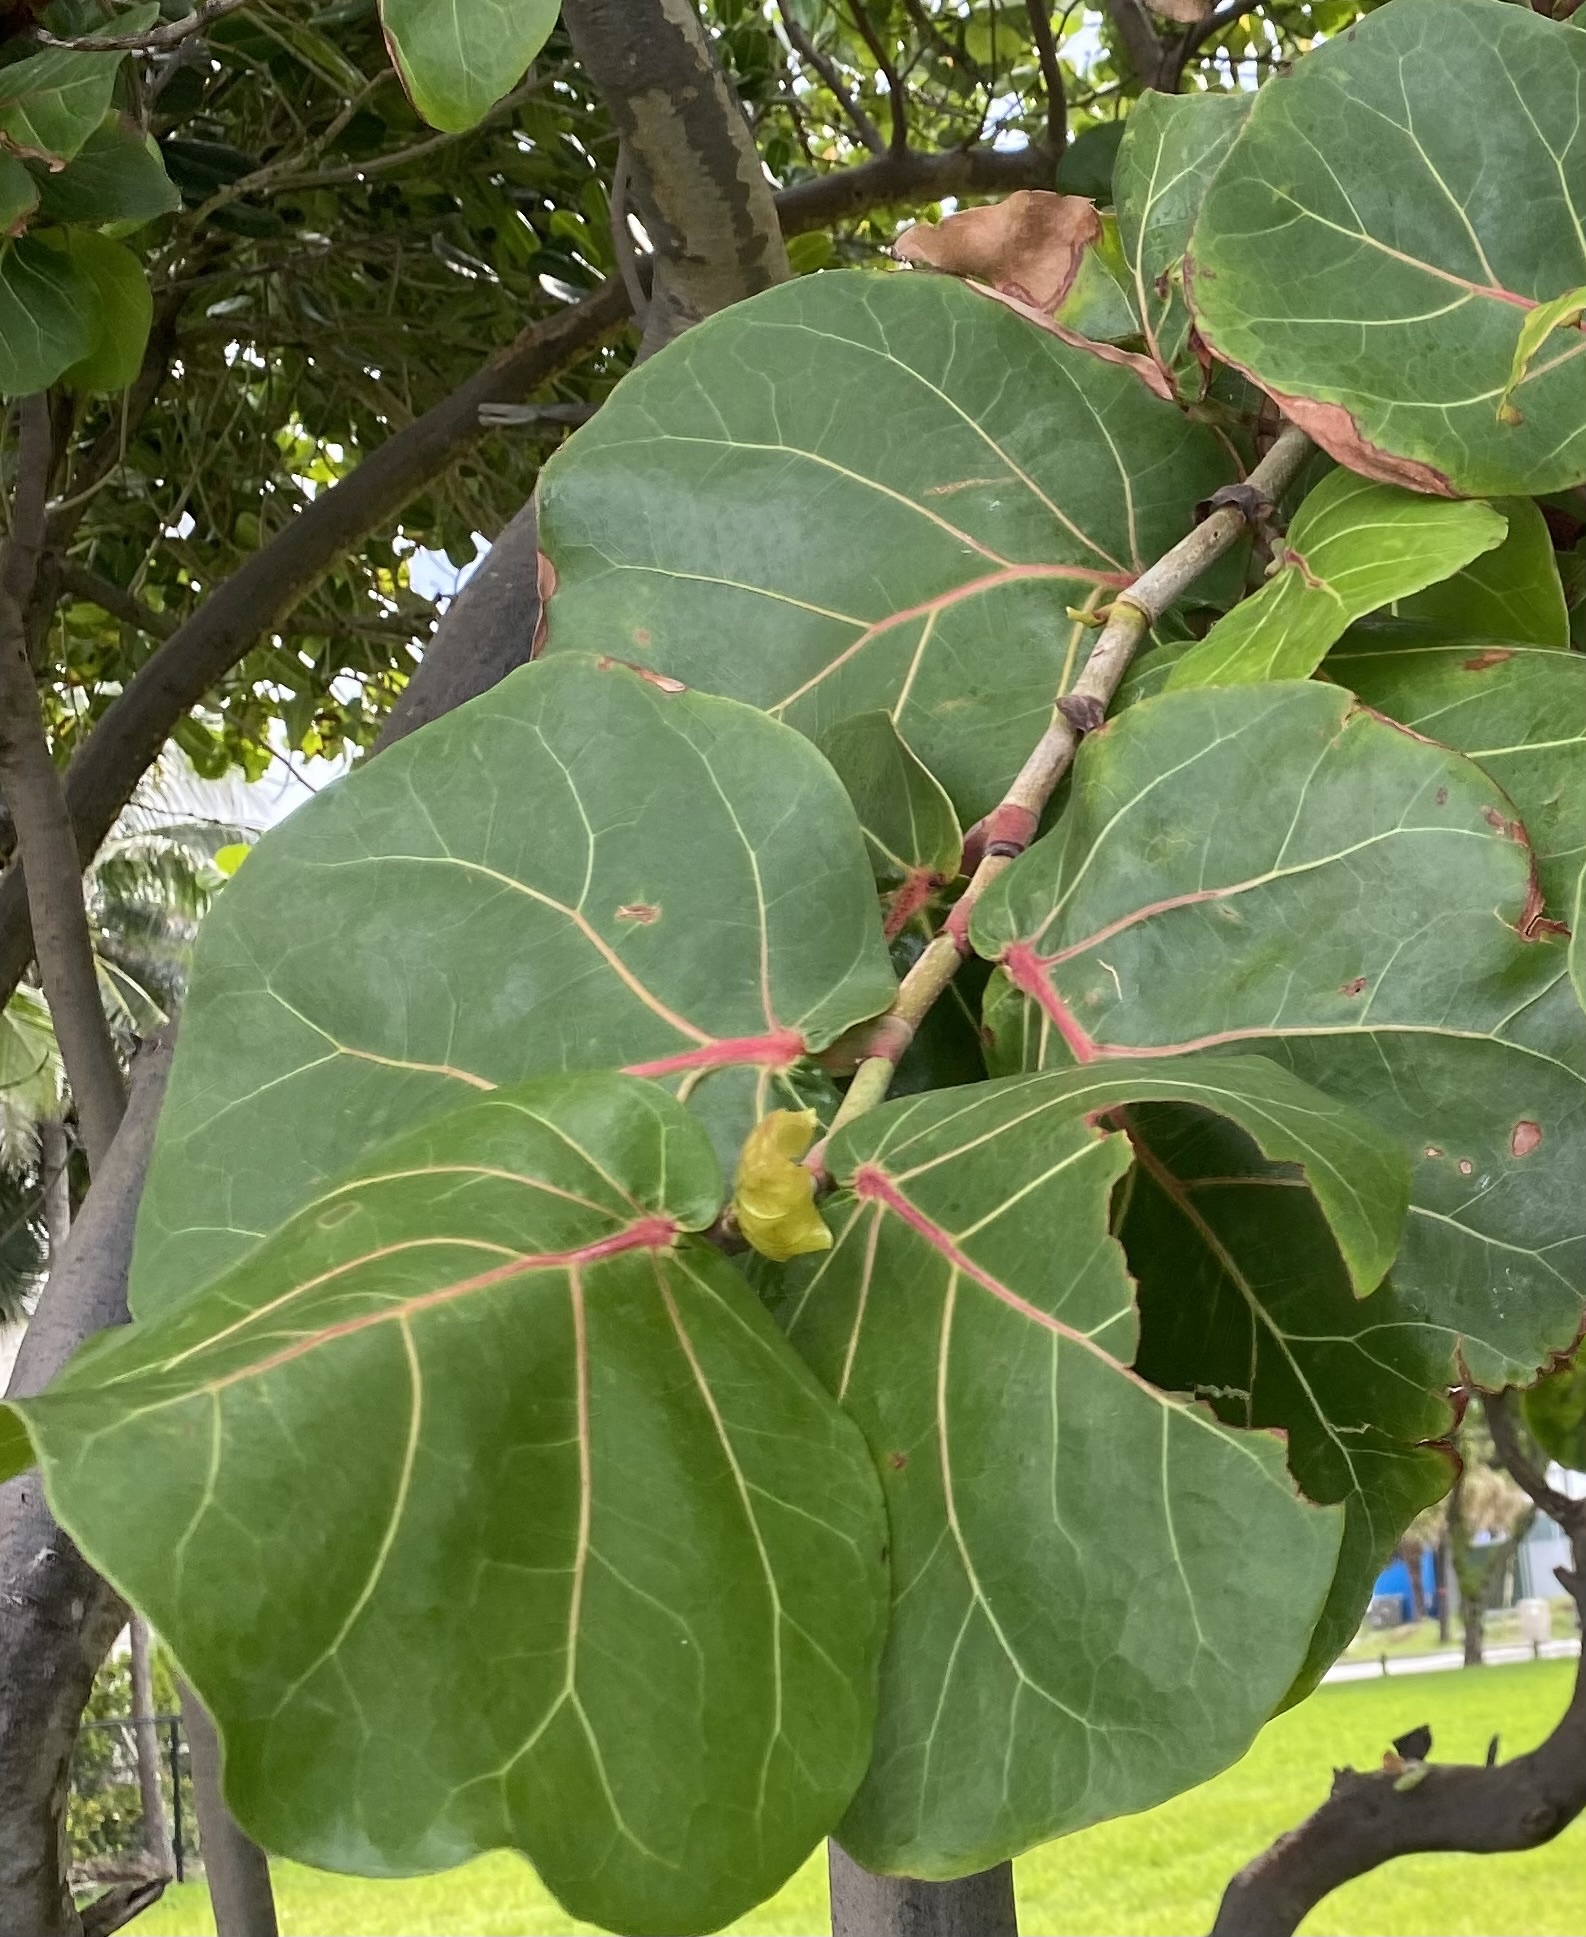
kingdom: Plantae
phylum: Tracheophyta
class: Magnoliopsida
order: Caryophyllales
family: Polygonaceae
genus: Coccoloba
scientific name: Coccoloba uvifera
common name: Seagrape
